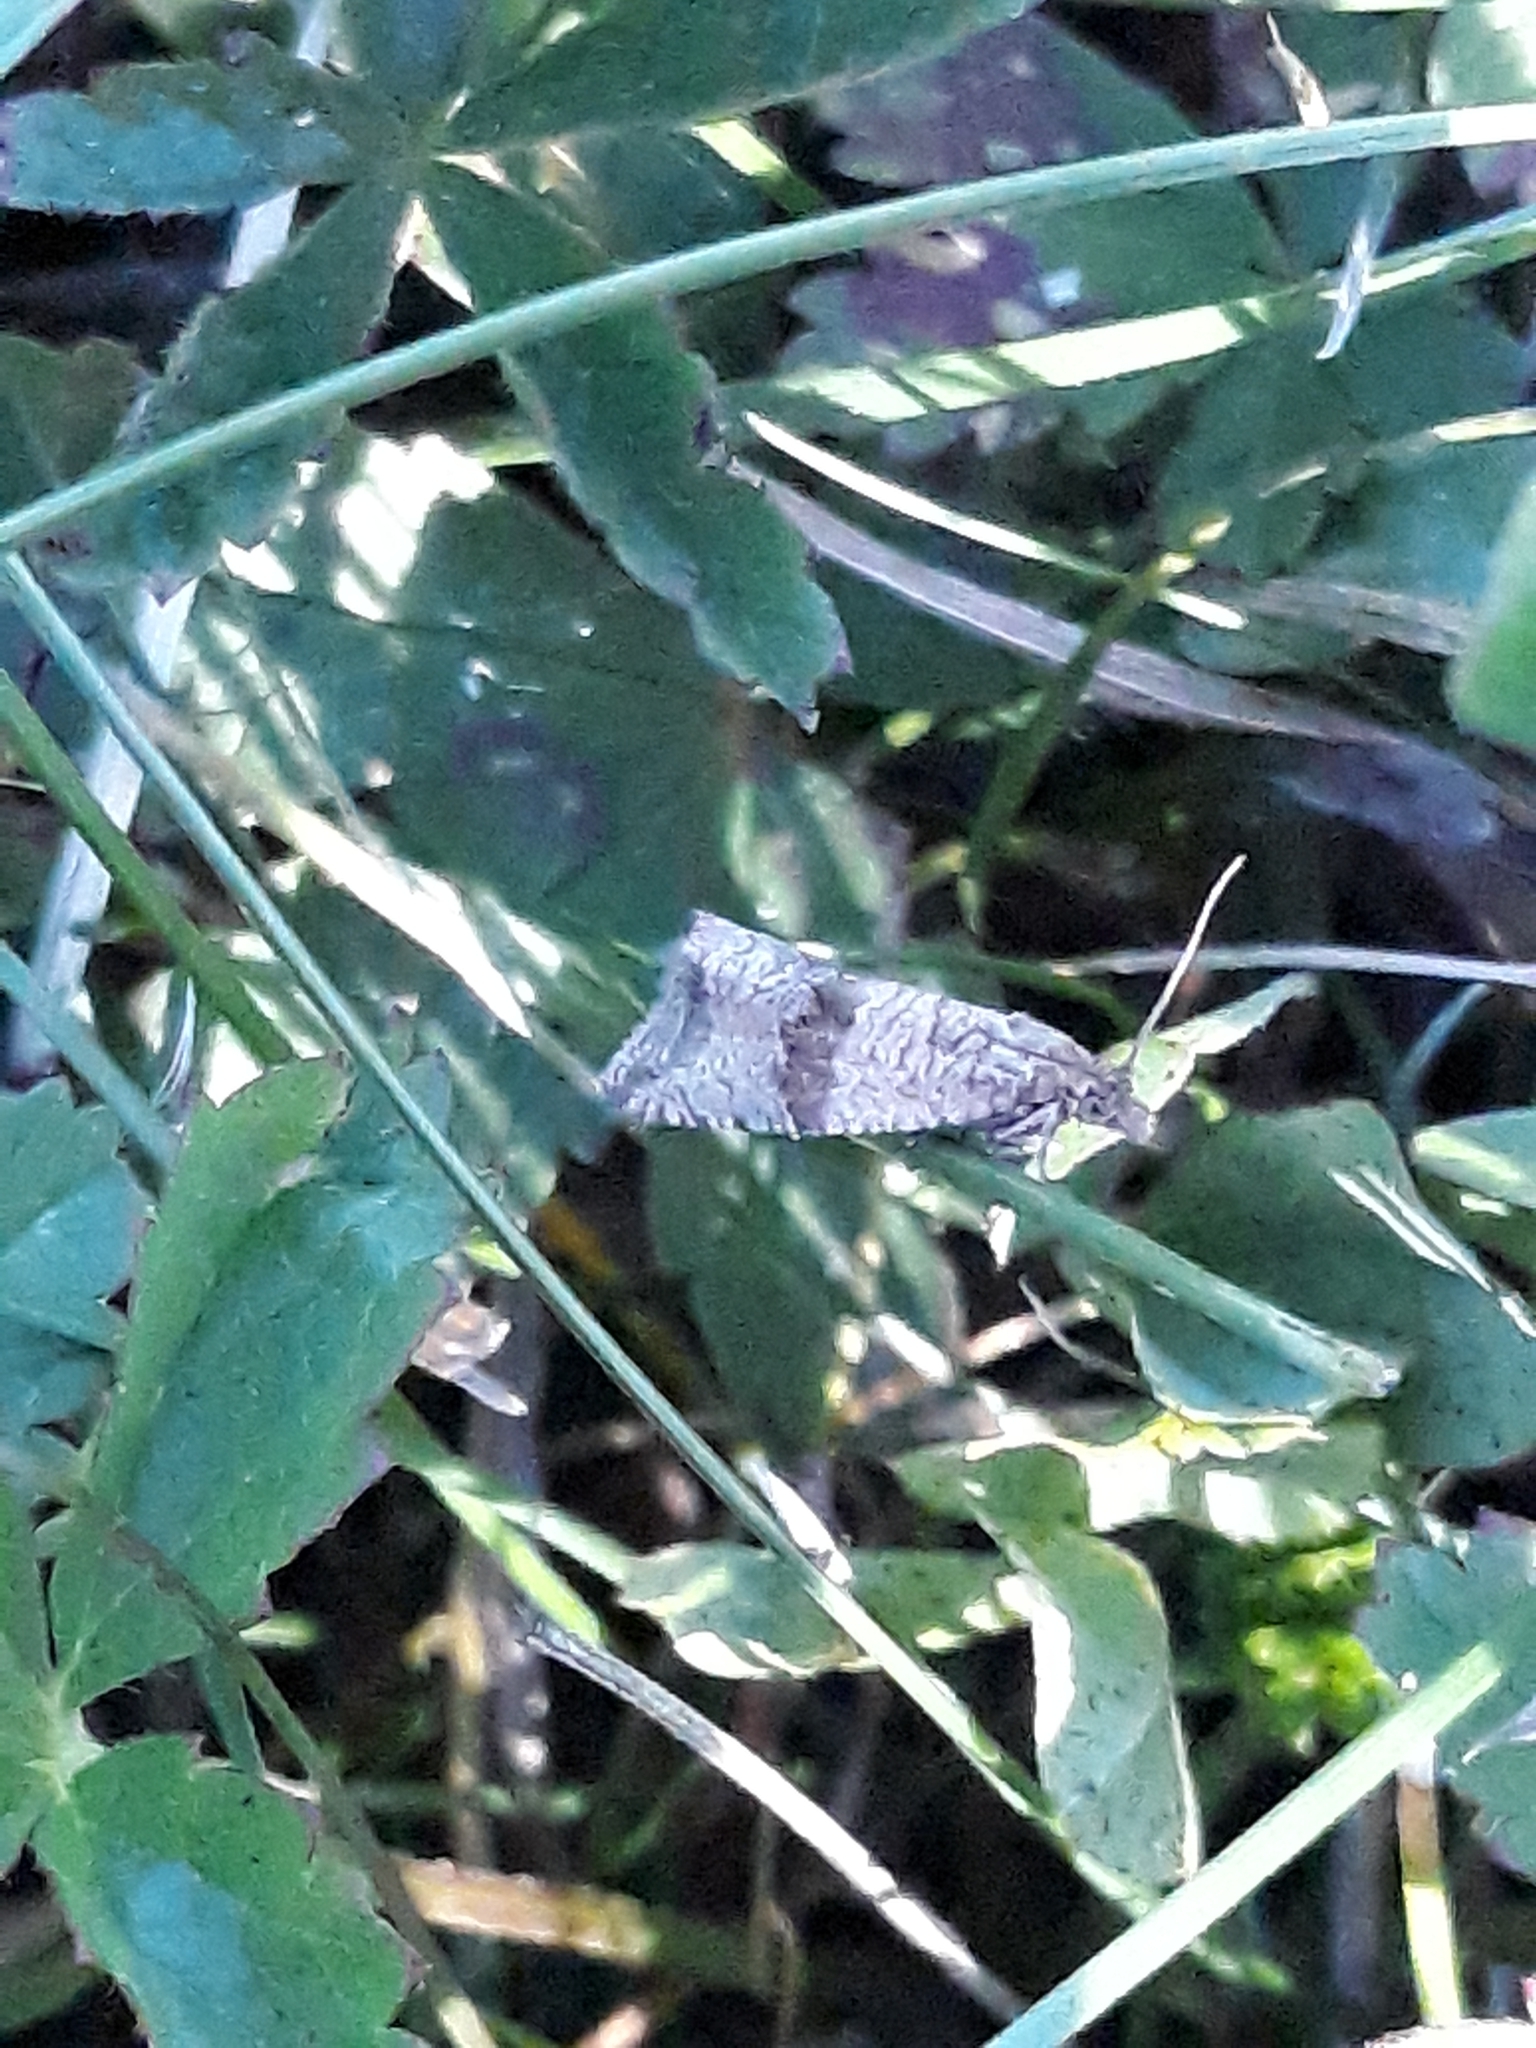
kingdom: Animalia
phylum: Arthropoda
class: Insecta
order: Lepidoptera
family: Tortricidae
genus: Celypha
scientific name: Celypha striana
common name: Barred marble
